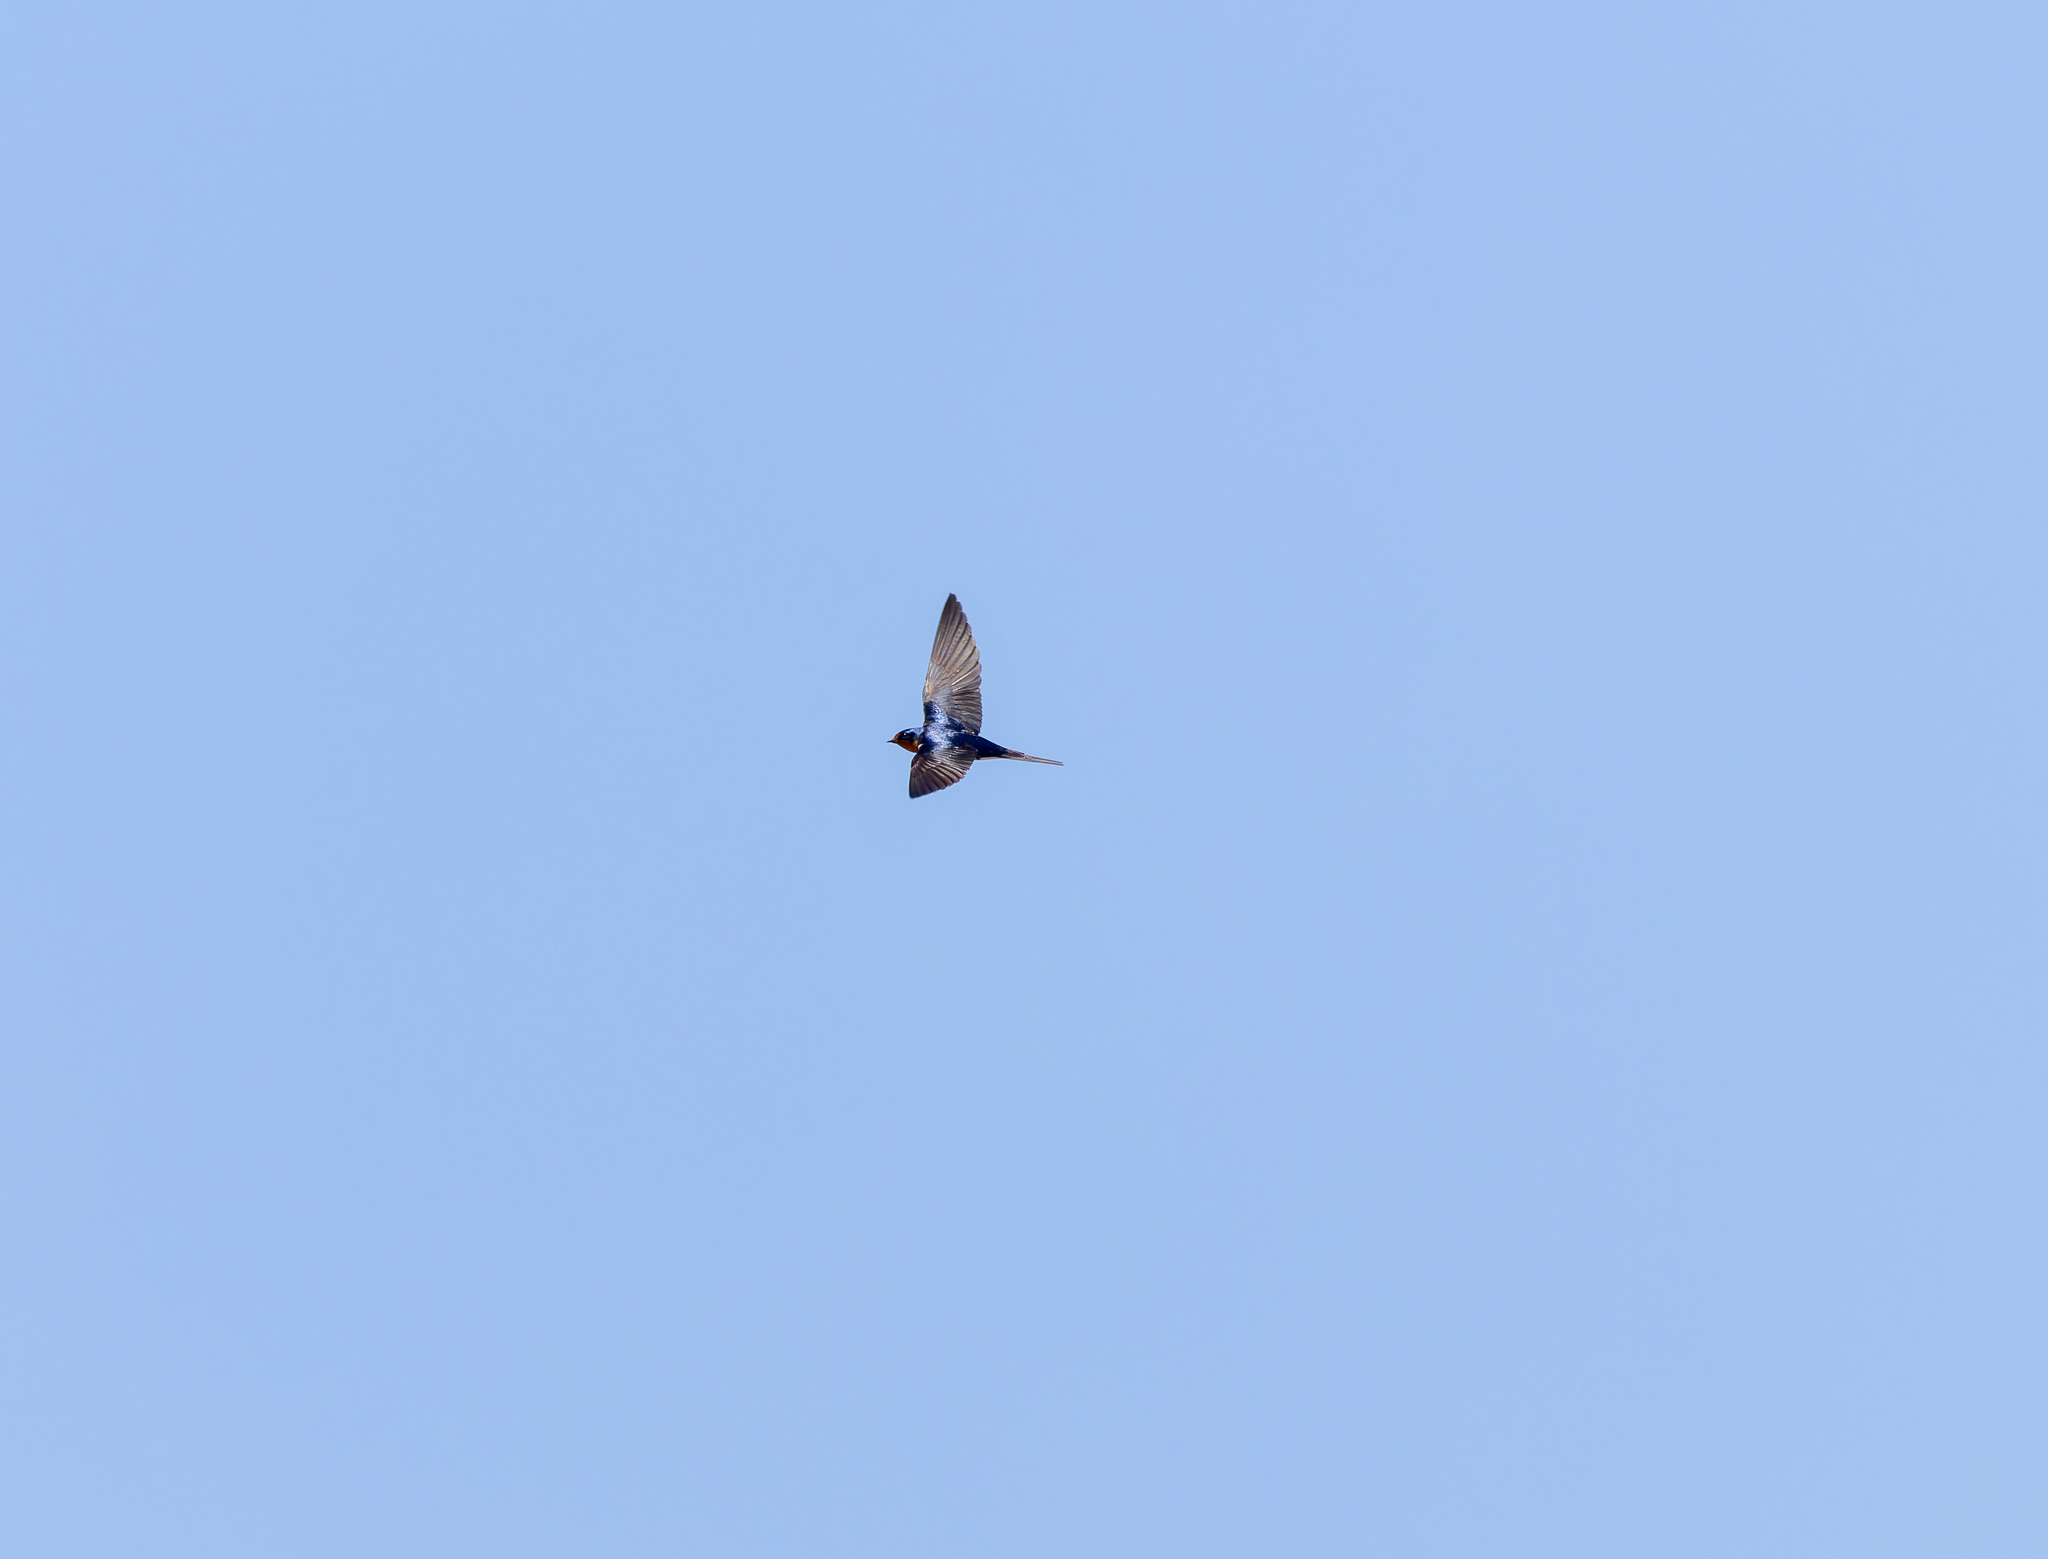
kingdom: Animalia
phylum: Chordata
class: Aves
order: Passeriformes
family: Hirundinidae
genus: Hirundo
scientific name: Hirundo rustica
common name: Barn swallow
